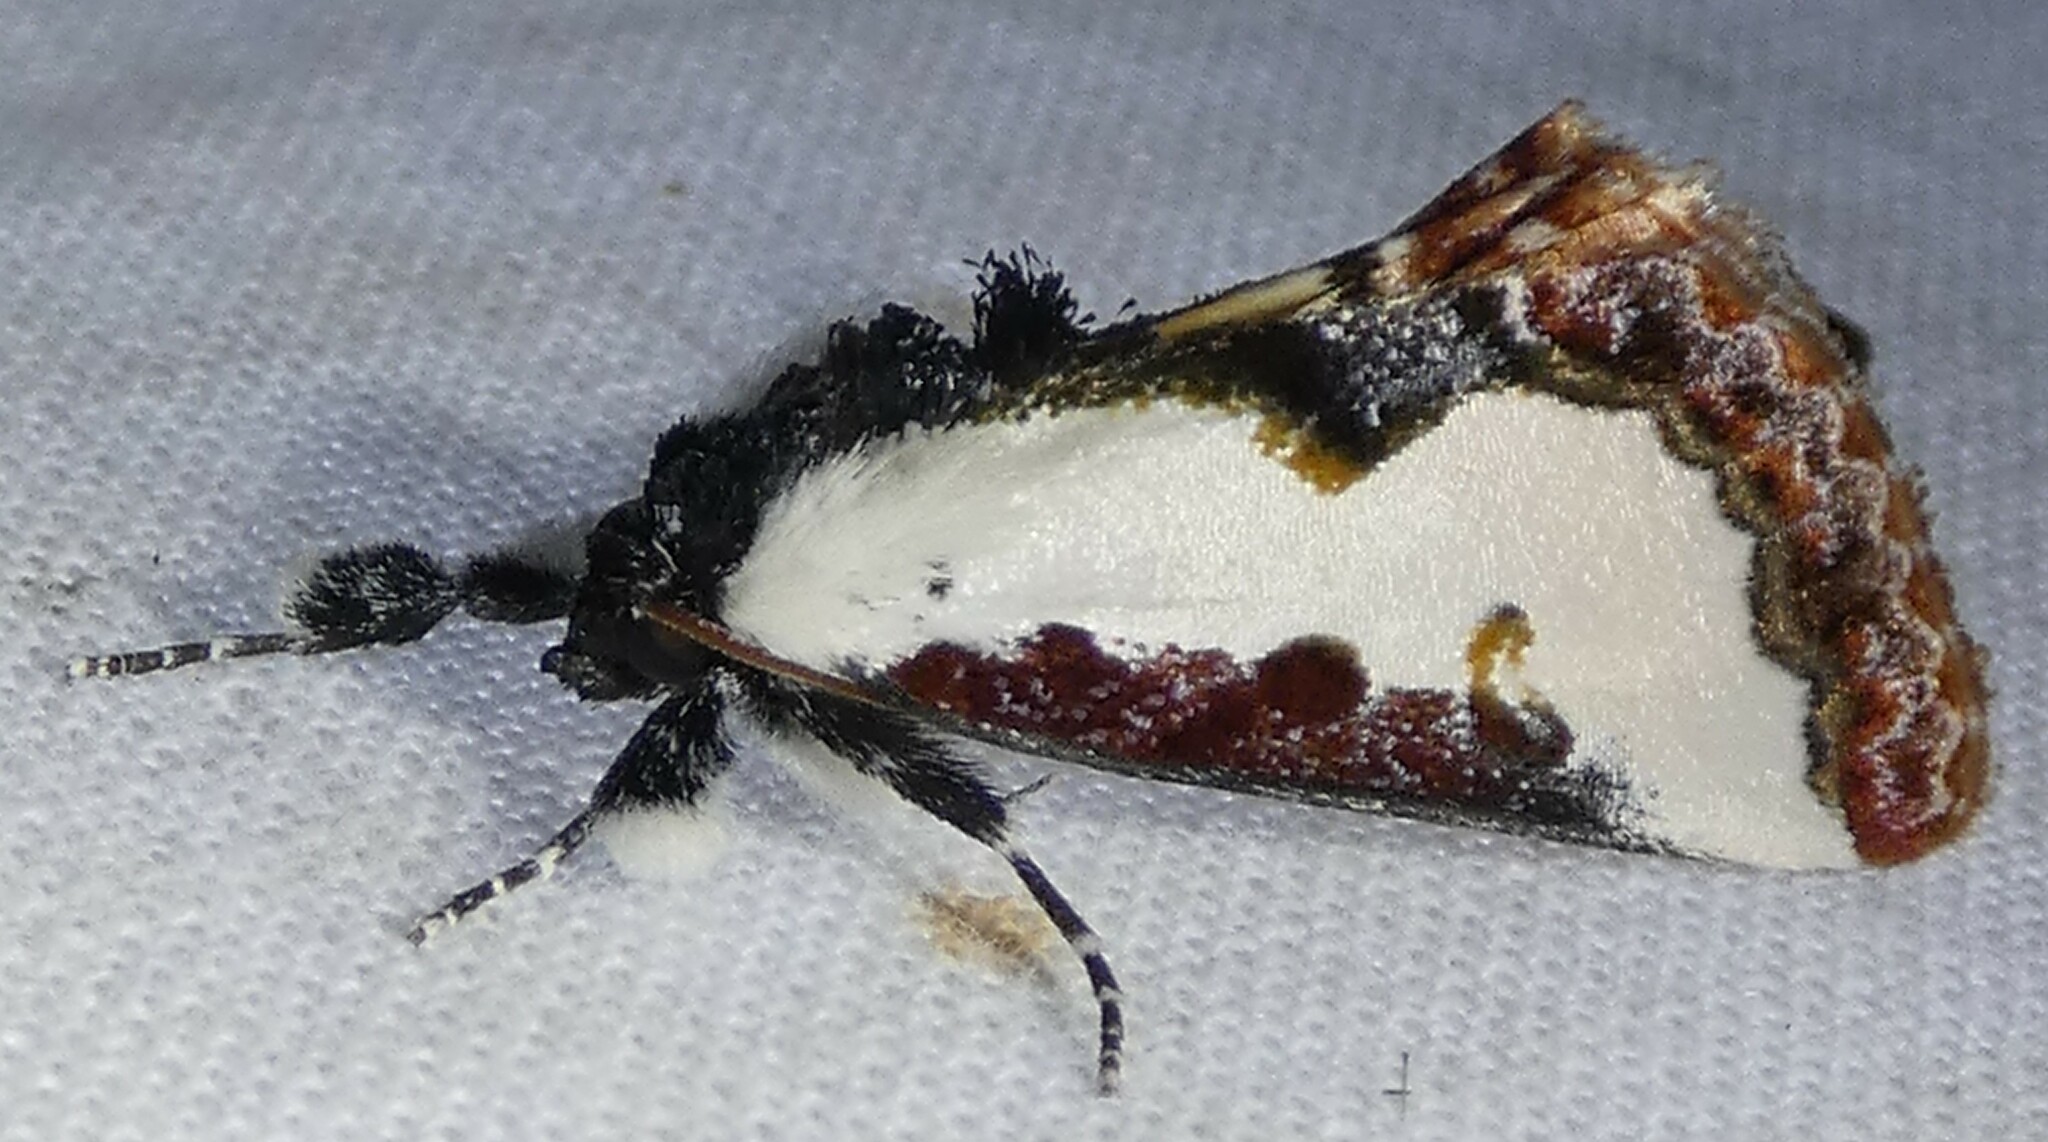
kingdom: Animalia
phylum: Arthropoda
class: Insecta
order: Lepidoptera
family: Noctuidae
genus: Eudryas
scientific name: Eudryas unio
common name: Pearly wood-nymph
